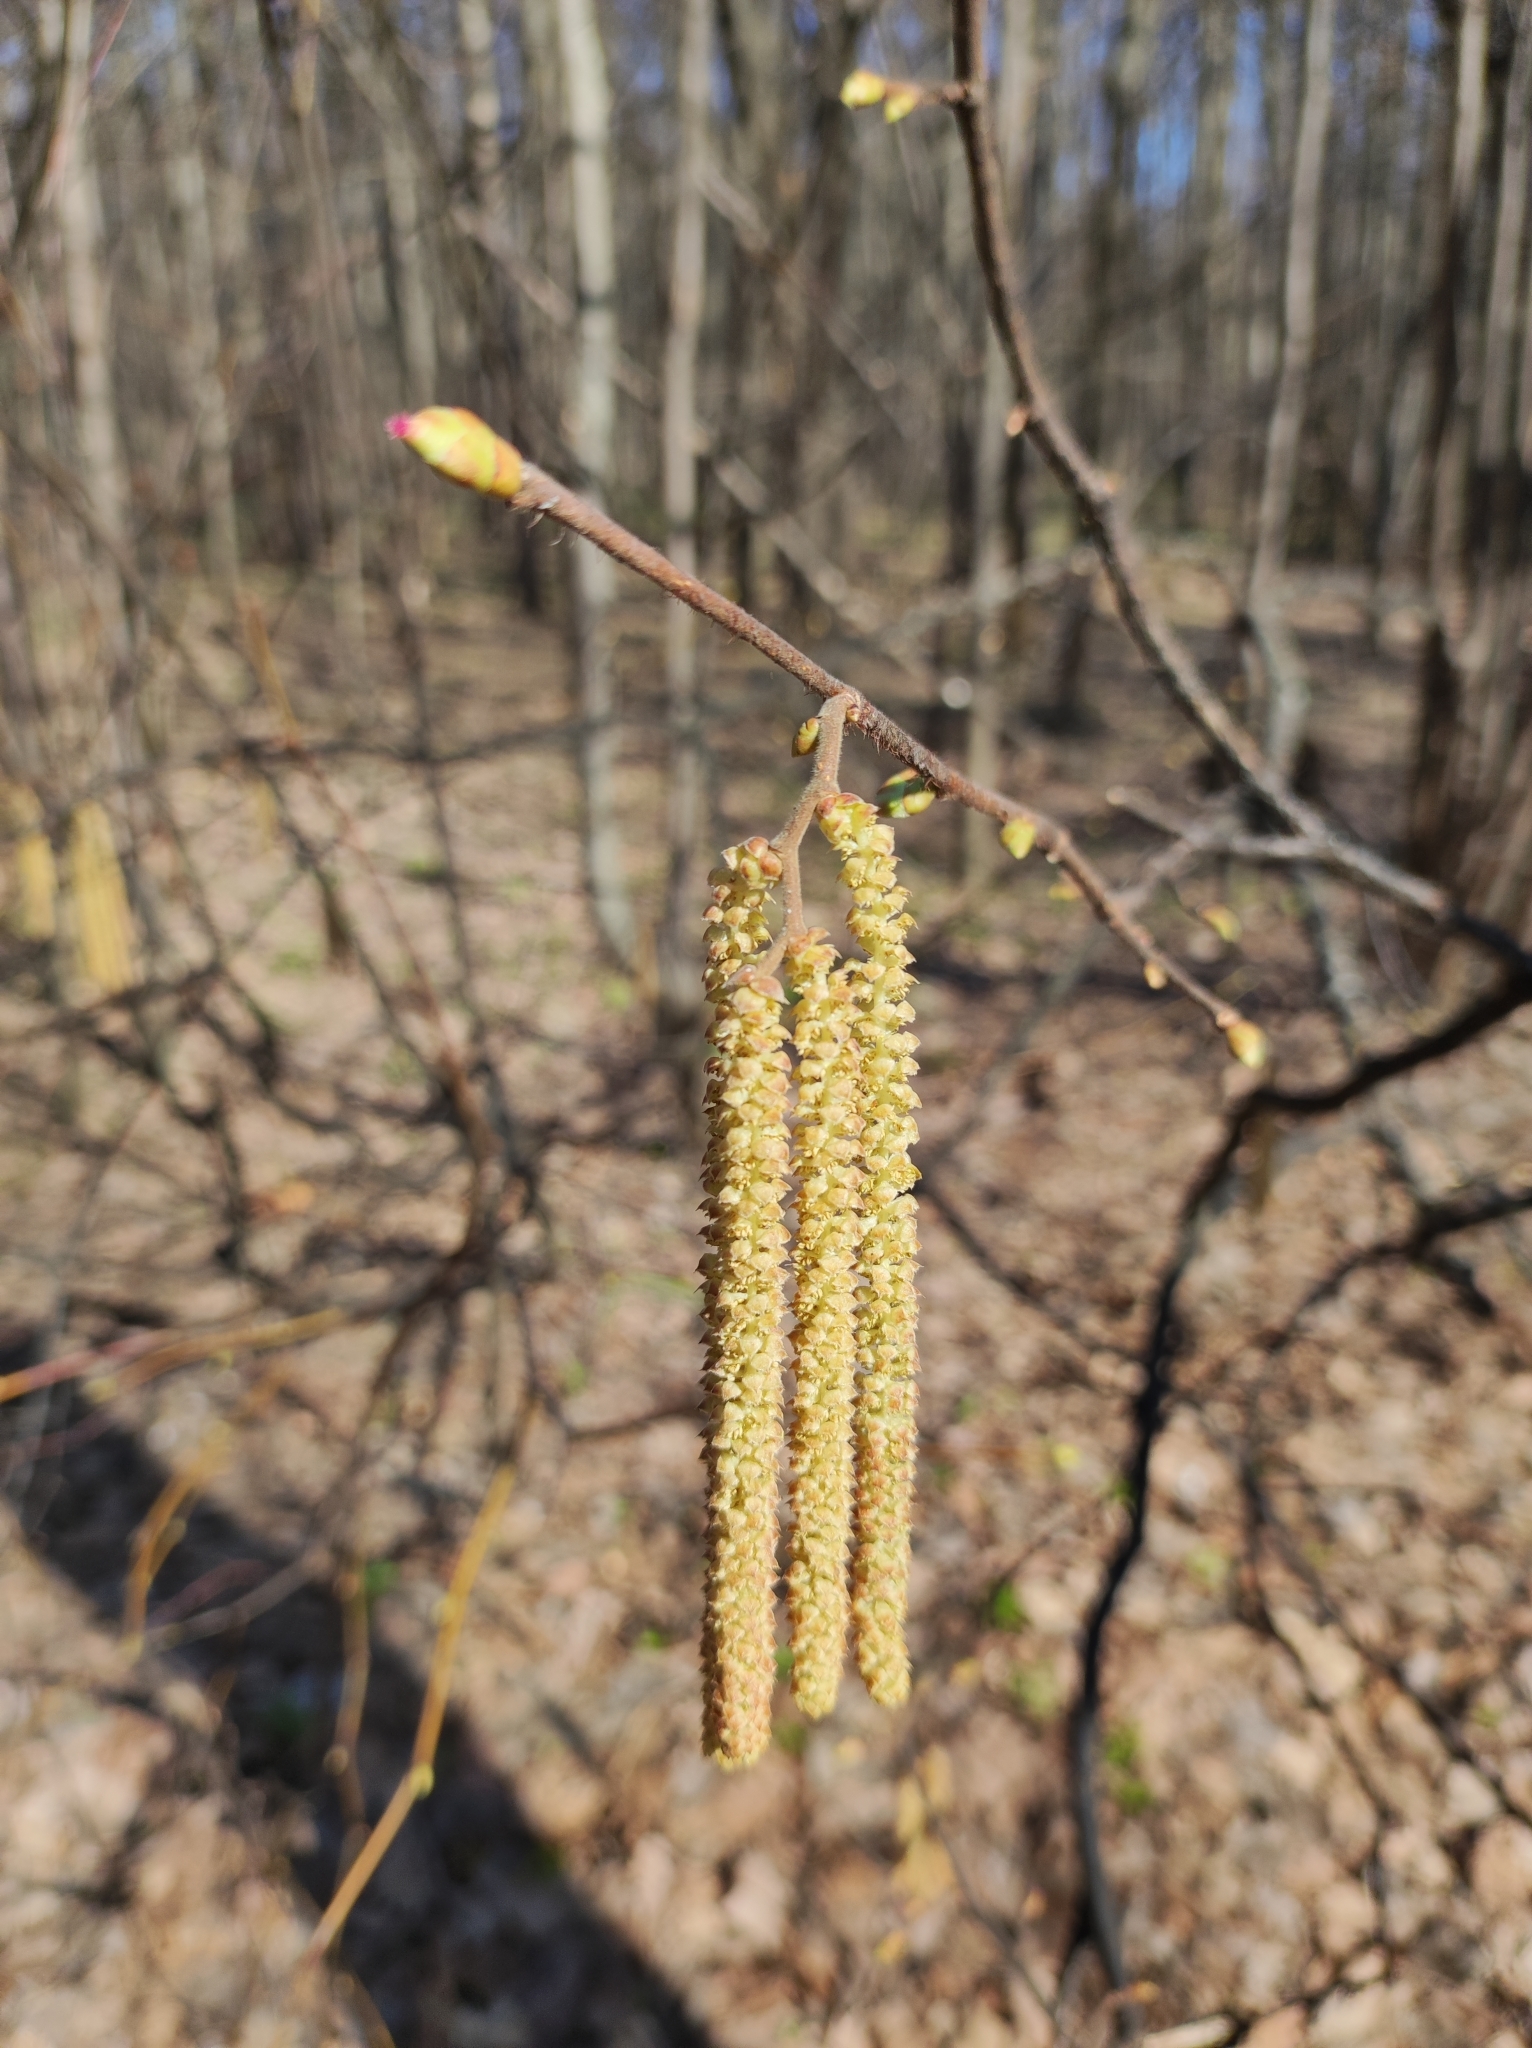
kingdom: Plantae
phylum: Tracheophyta
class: Magnoliopsida
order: Fagales
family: Betulaceae
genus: Corylus
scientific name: Corylus avellana
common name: European hazel
